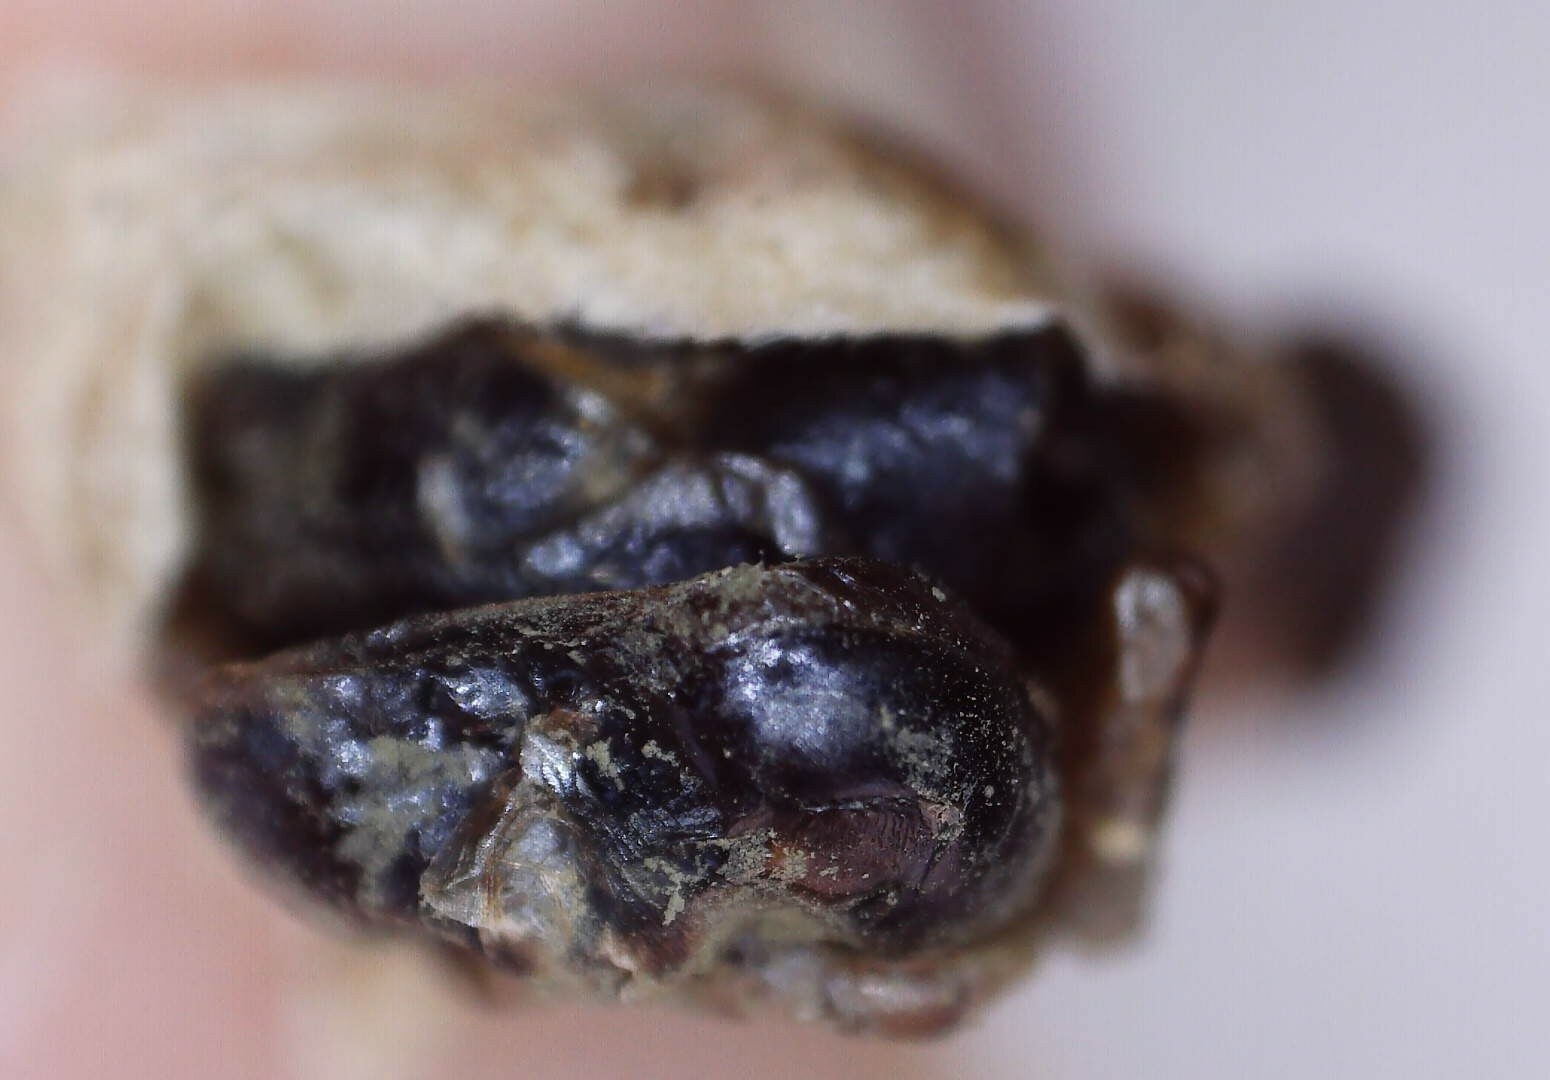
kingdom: Animalia
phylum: Arthropoda
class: Insecta
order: Hymenoptera
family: Vespidae
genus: Dolichovespula
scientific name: Dolichovespula maculata
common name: Bald-faced hornet
